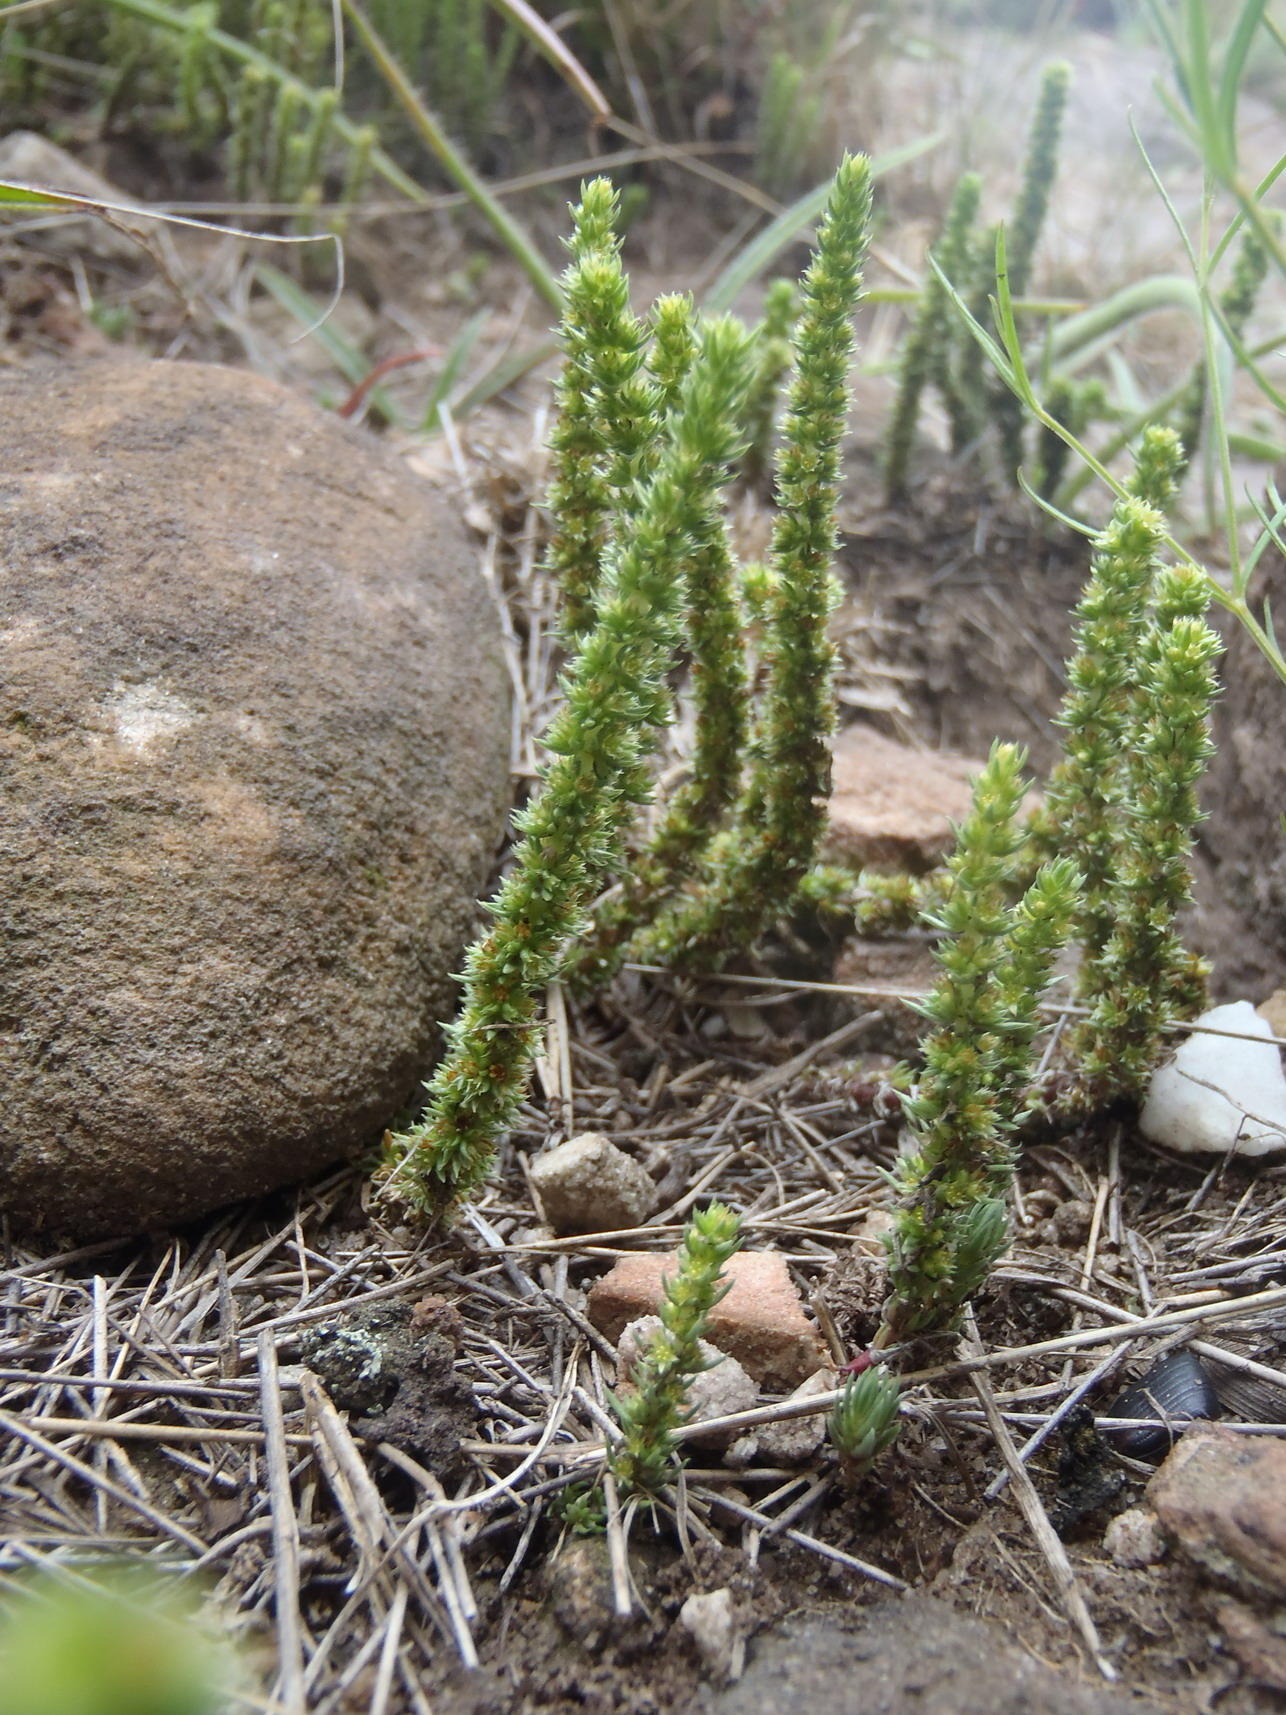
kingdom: Plantae
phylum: Tracheophyta
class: Magnoliopsida
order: Saxifragales
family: Crassulaceae
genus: Crassula
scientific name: Crassula lanceolata
